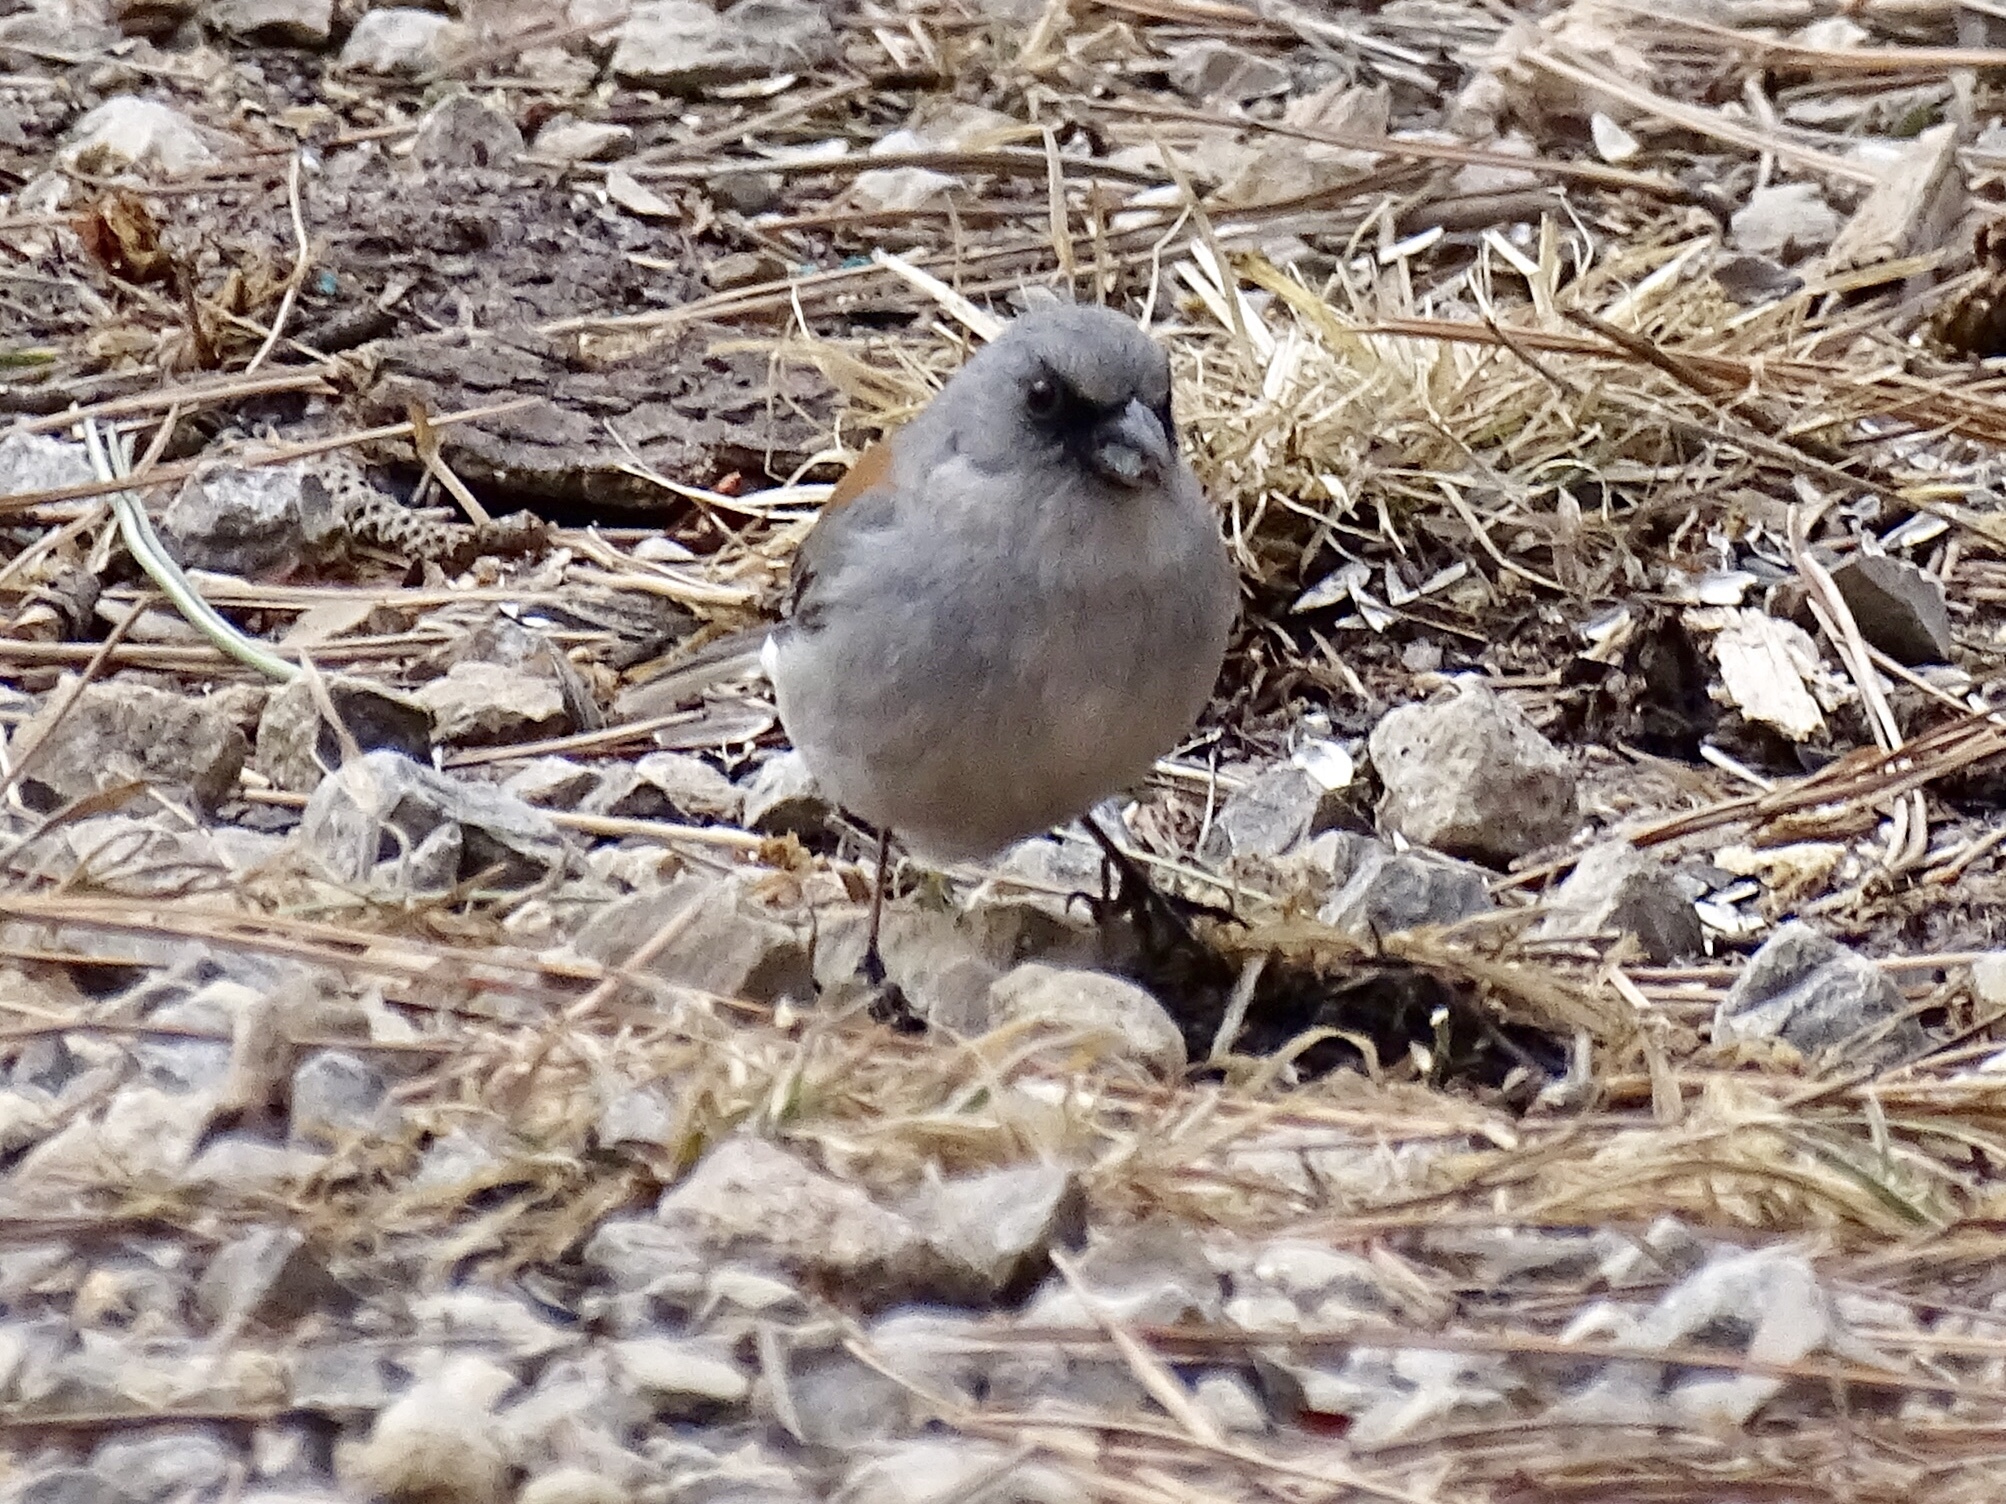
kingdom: Animalia
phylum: Chordata
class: Aves
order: Passeriformes
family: Passerellidae
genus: Junco
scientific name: Junco hyemalis
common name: Dark-eyed junco
